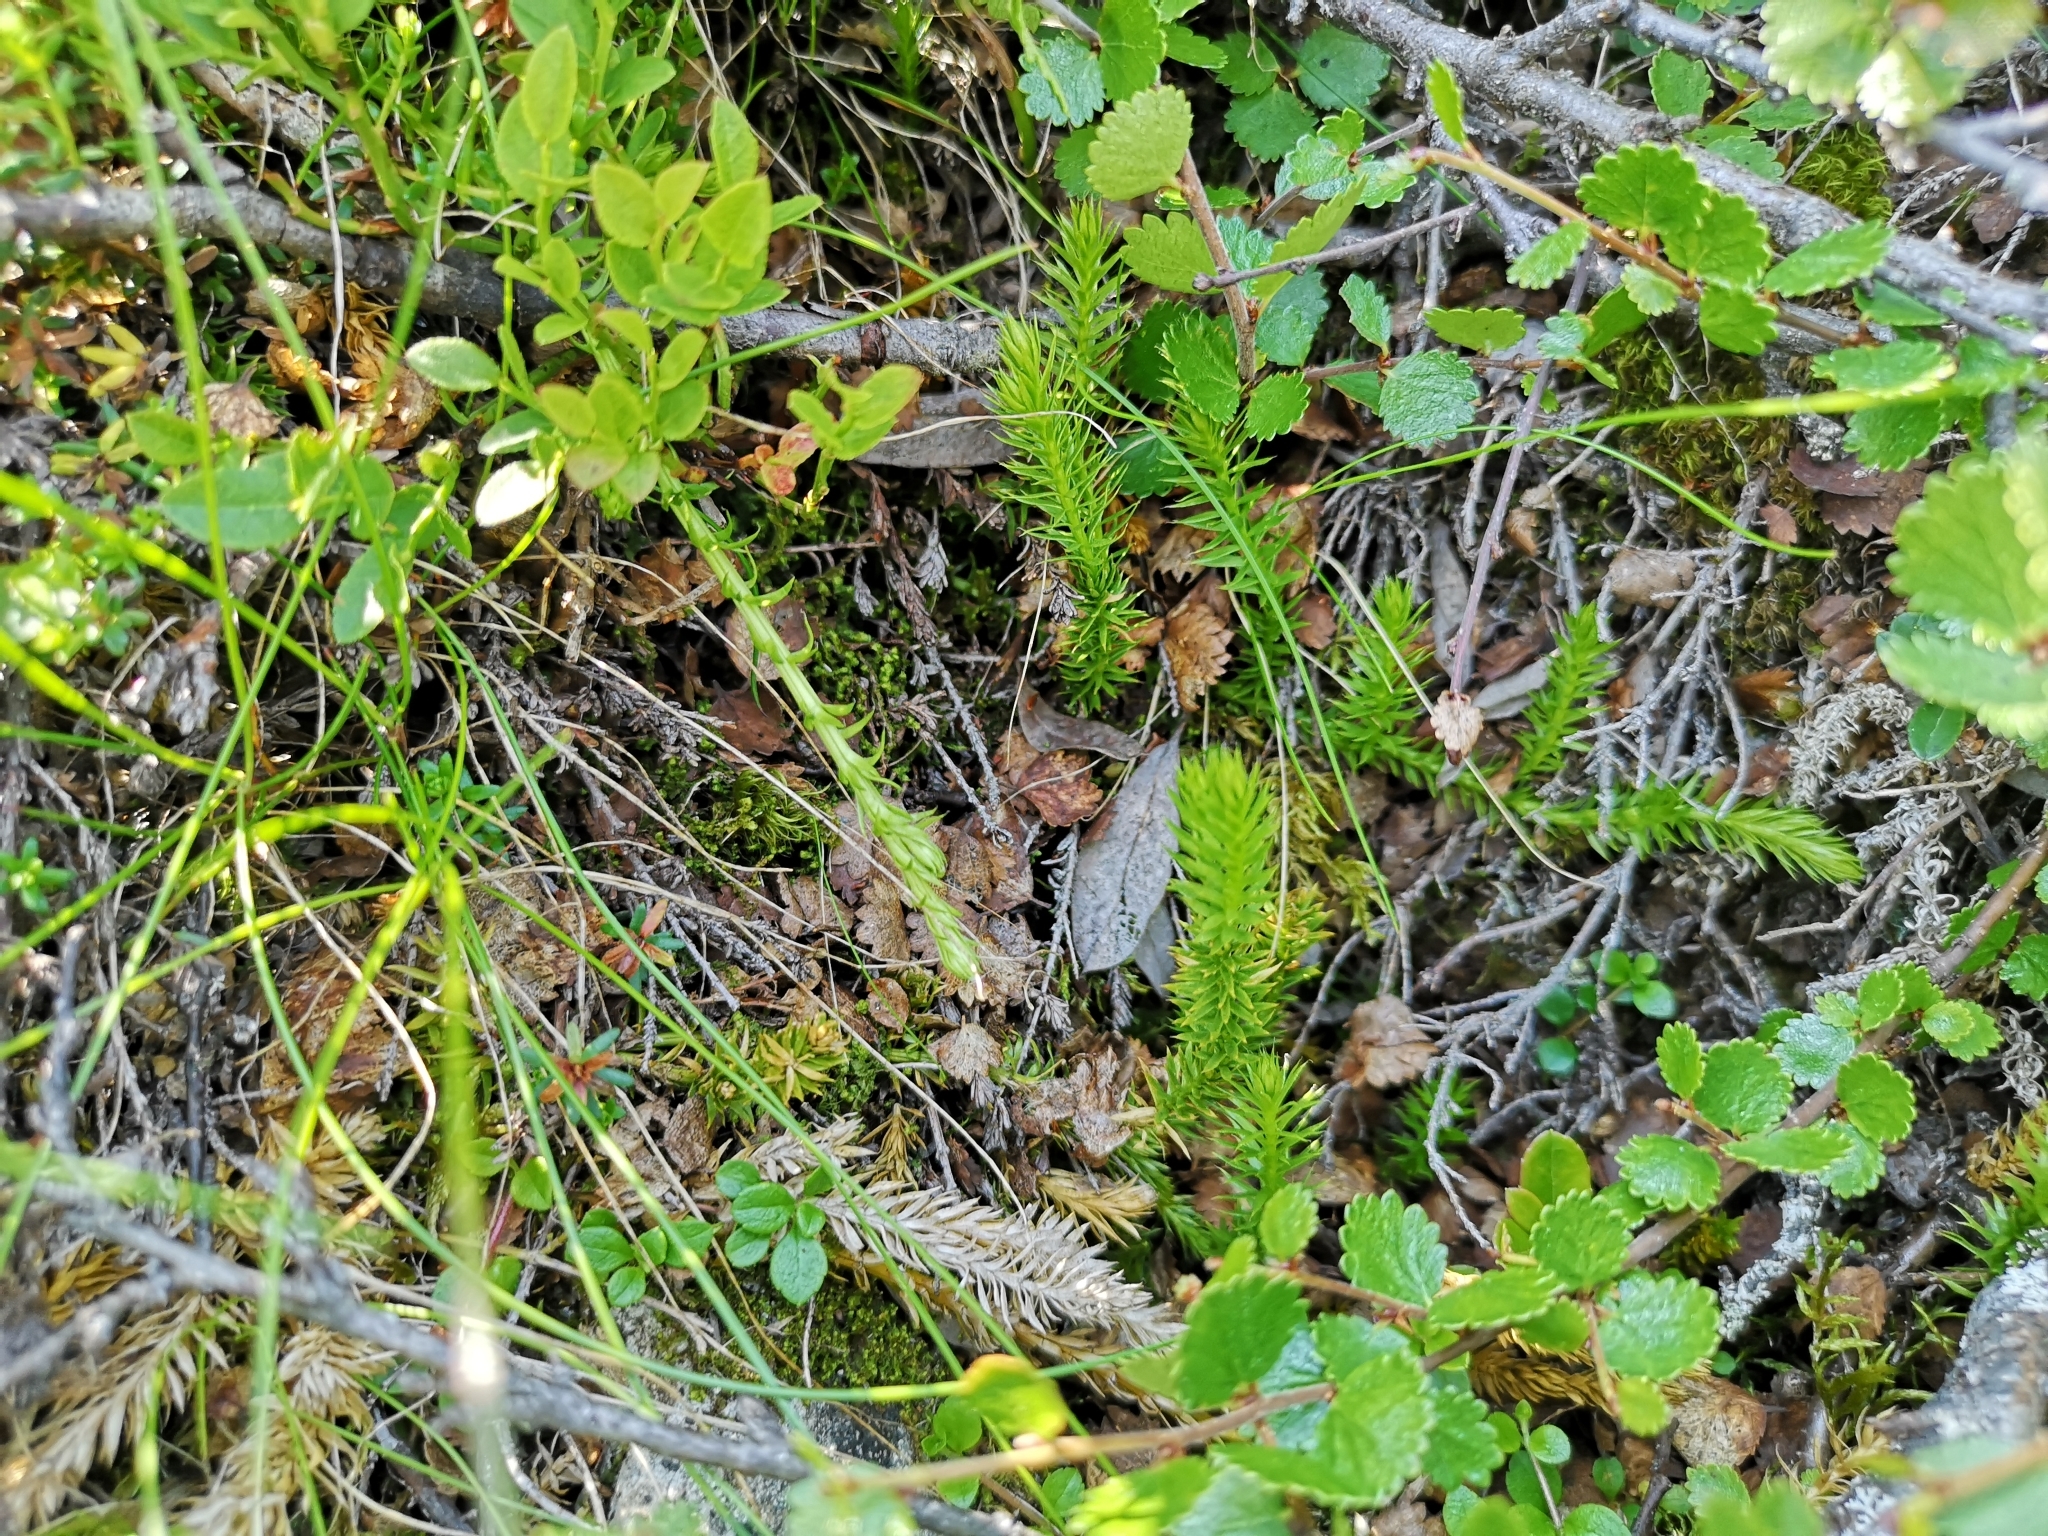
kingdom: Plantae
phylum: Tracheophyta
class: Lycopodiopsida
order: Lycopodiales
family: Lycopodiaceae
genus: Spinulum
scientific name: Spinulum annotinum
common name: Interrupted club-moss
